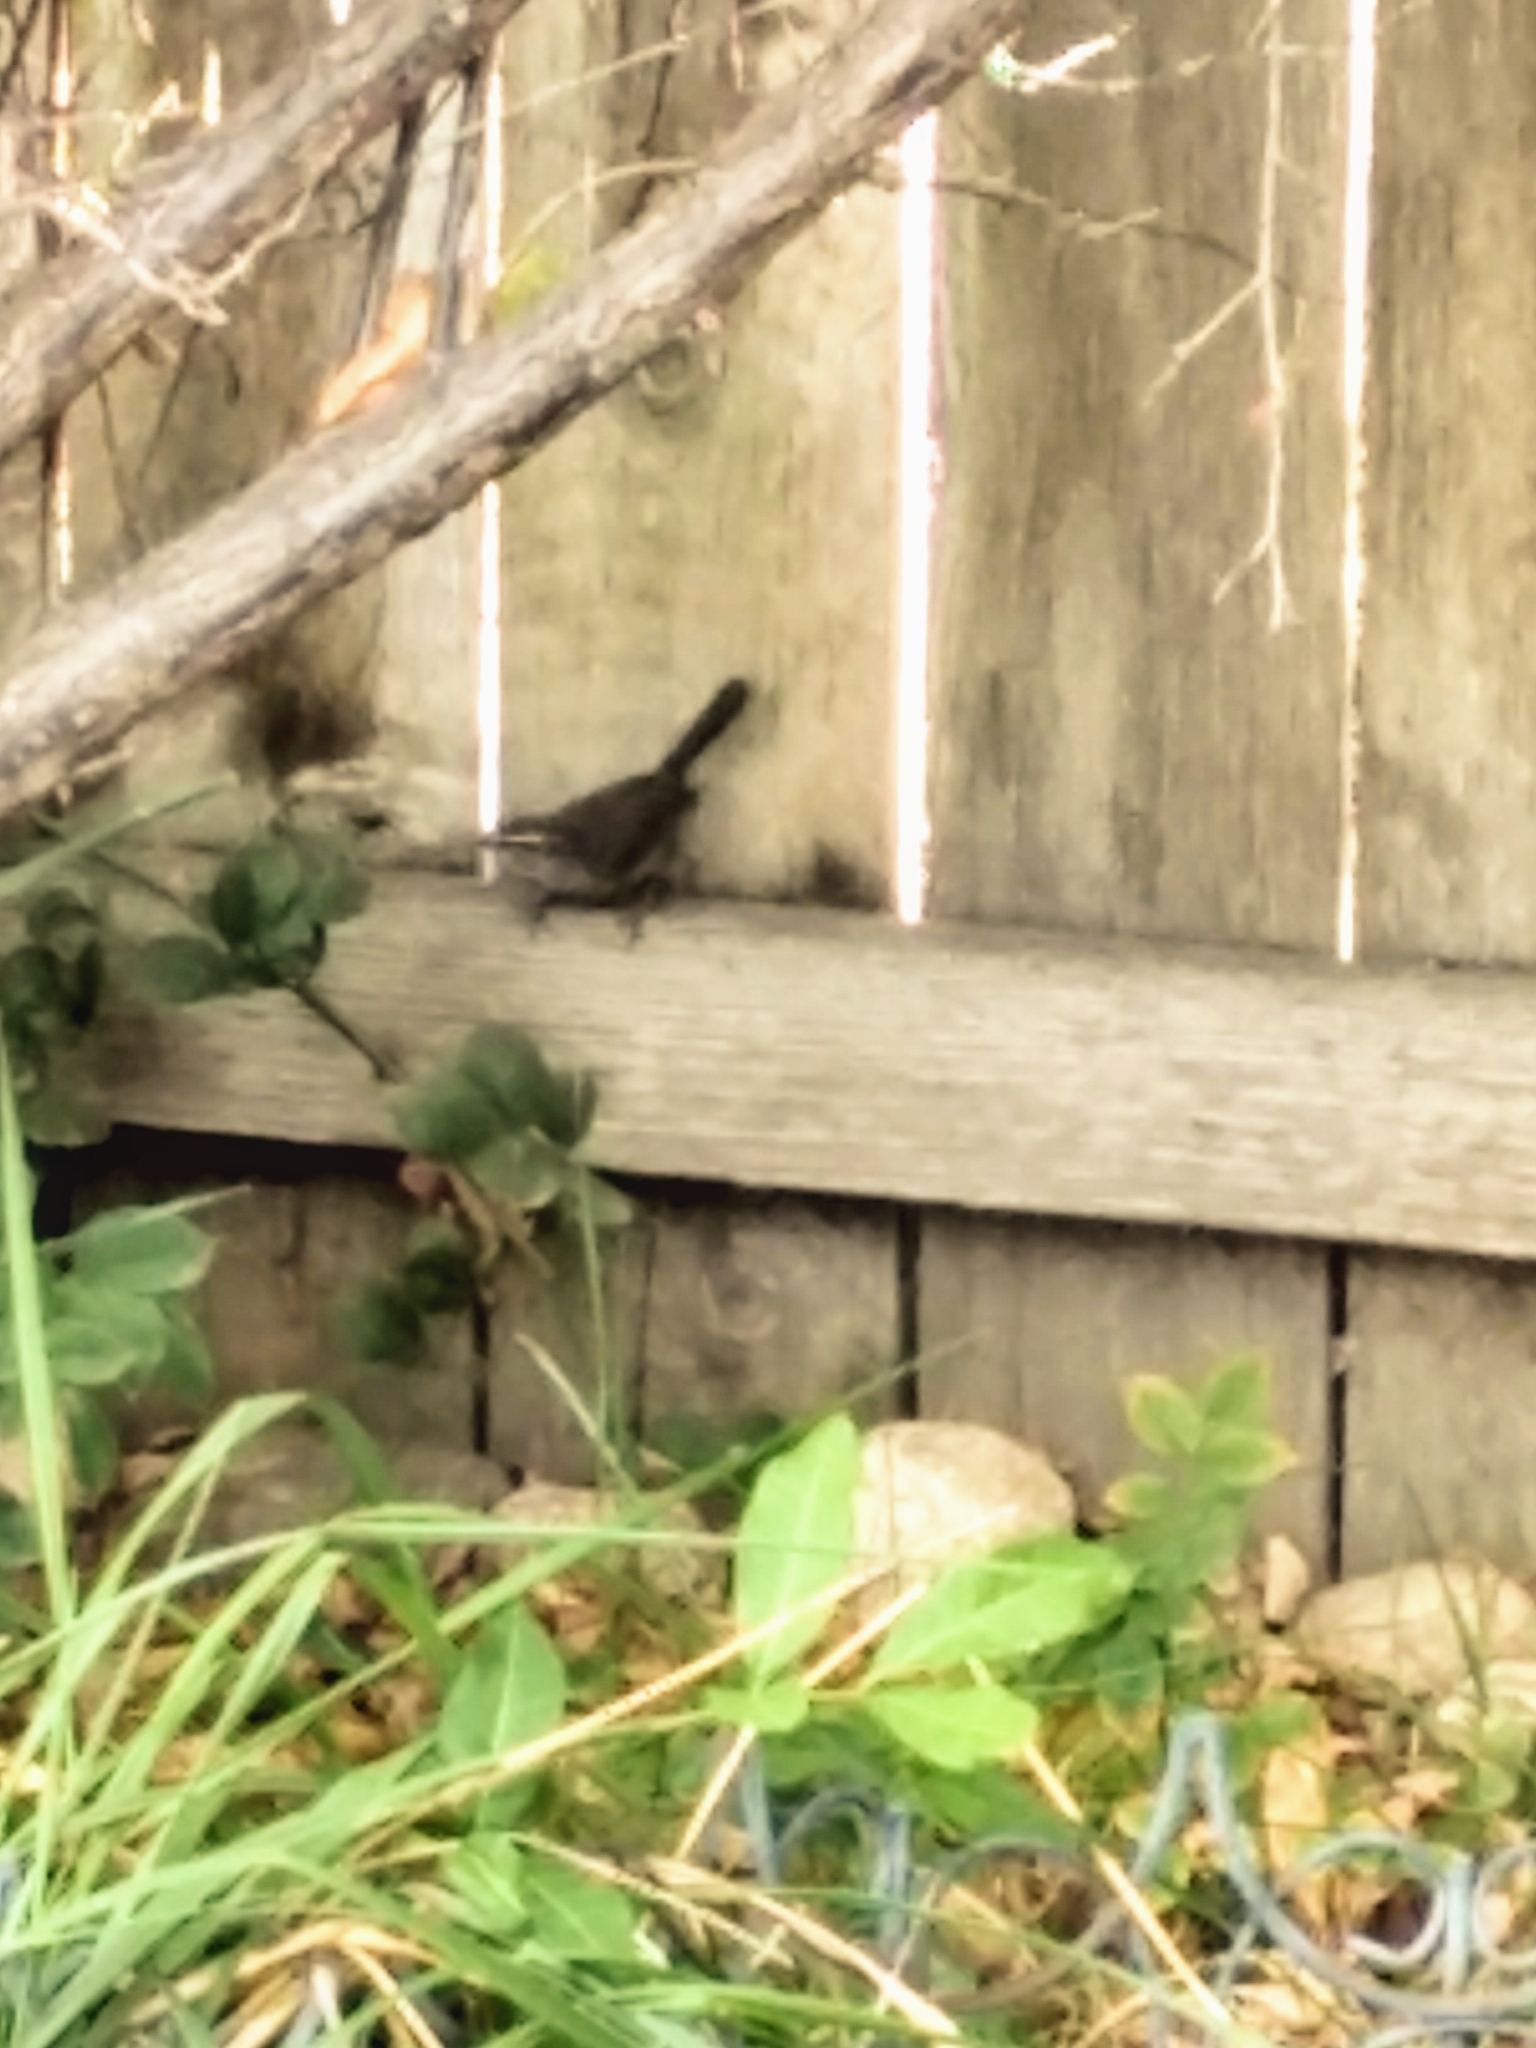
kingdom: Animalia
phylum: Chordata
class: Aves
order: Passeriformes
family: Troglodytidae
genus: Thryomanes
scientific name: Thryomanes bewickii
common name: Bewick's wren
